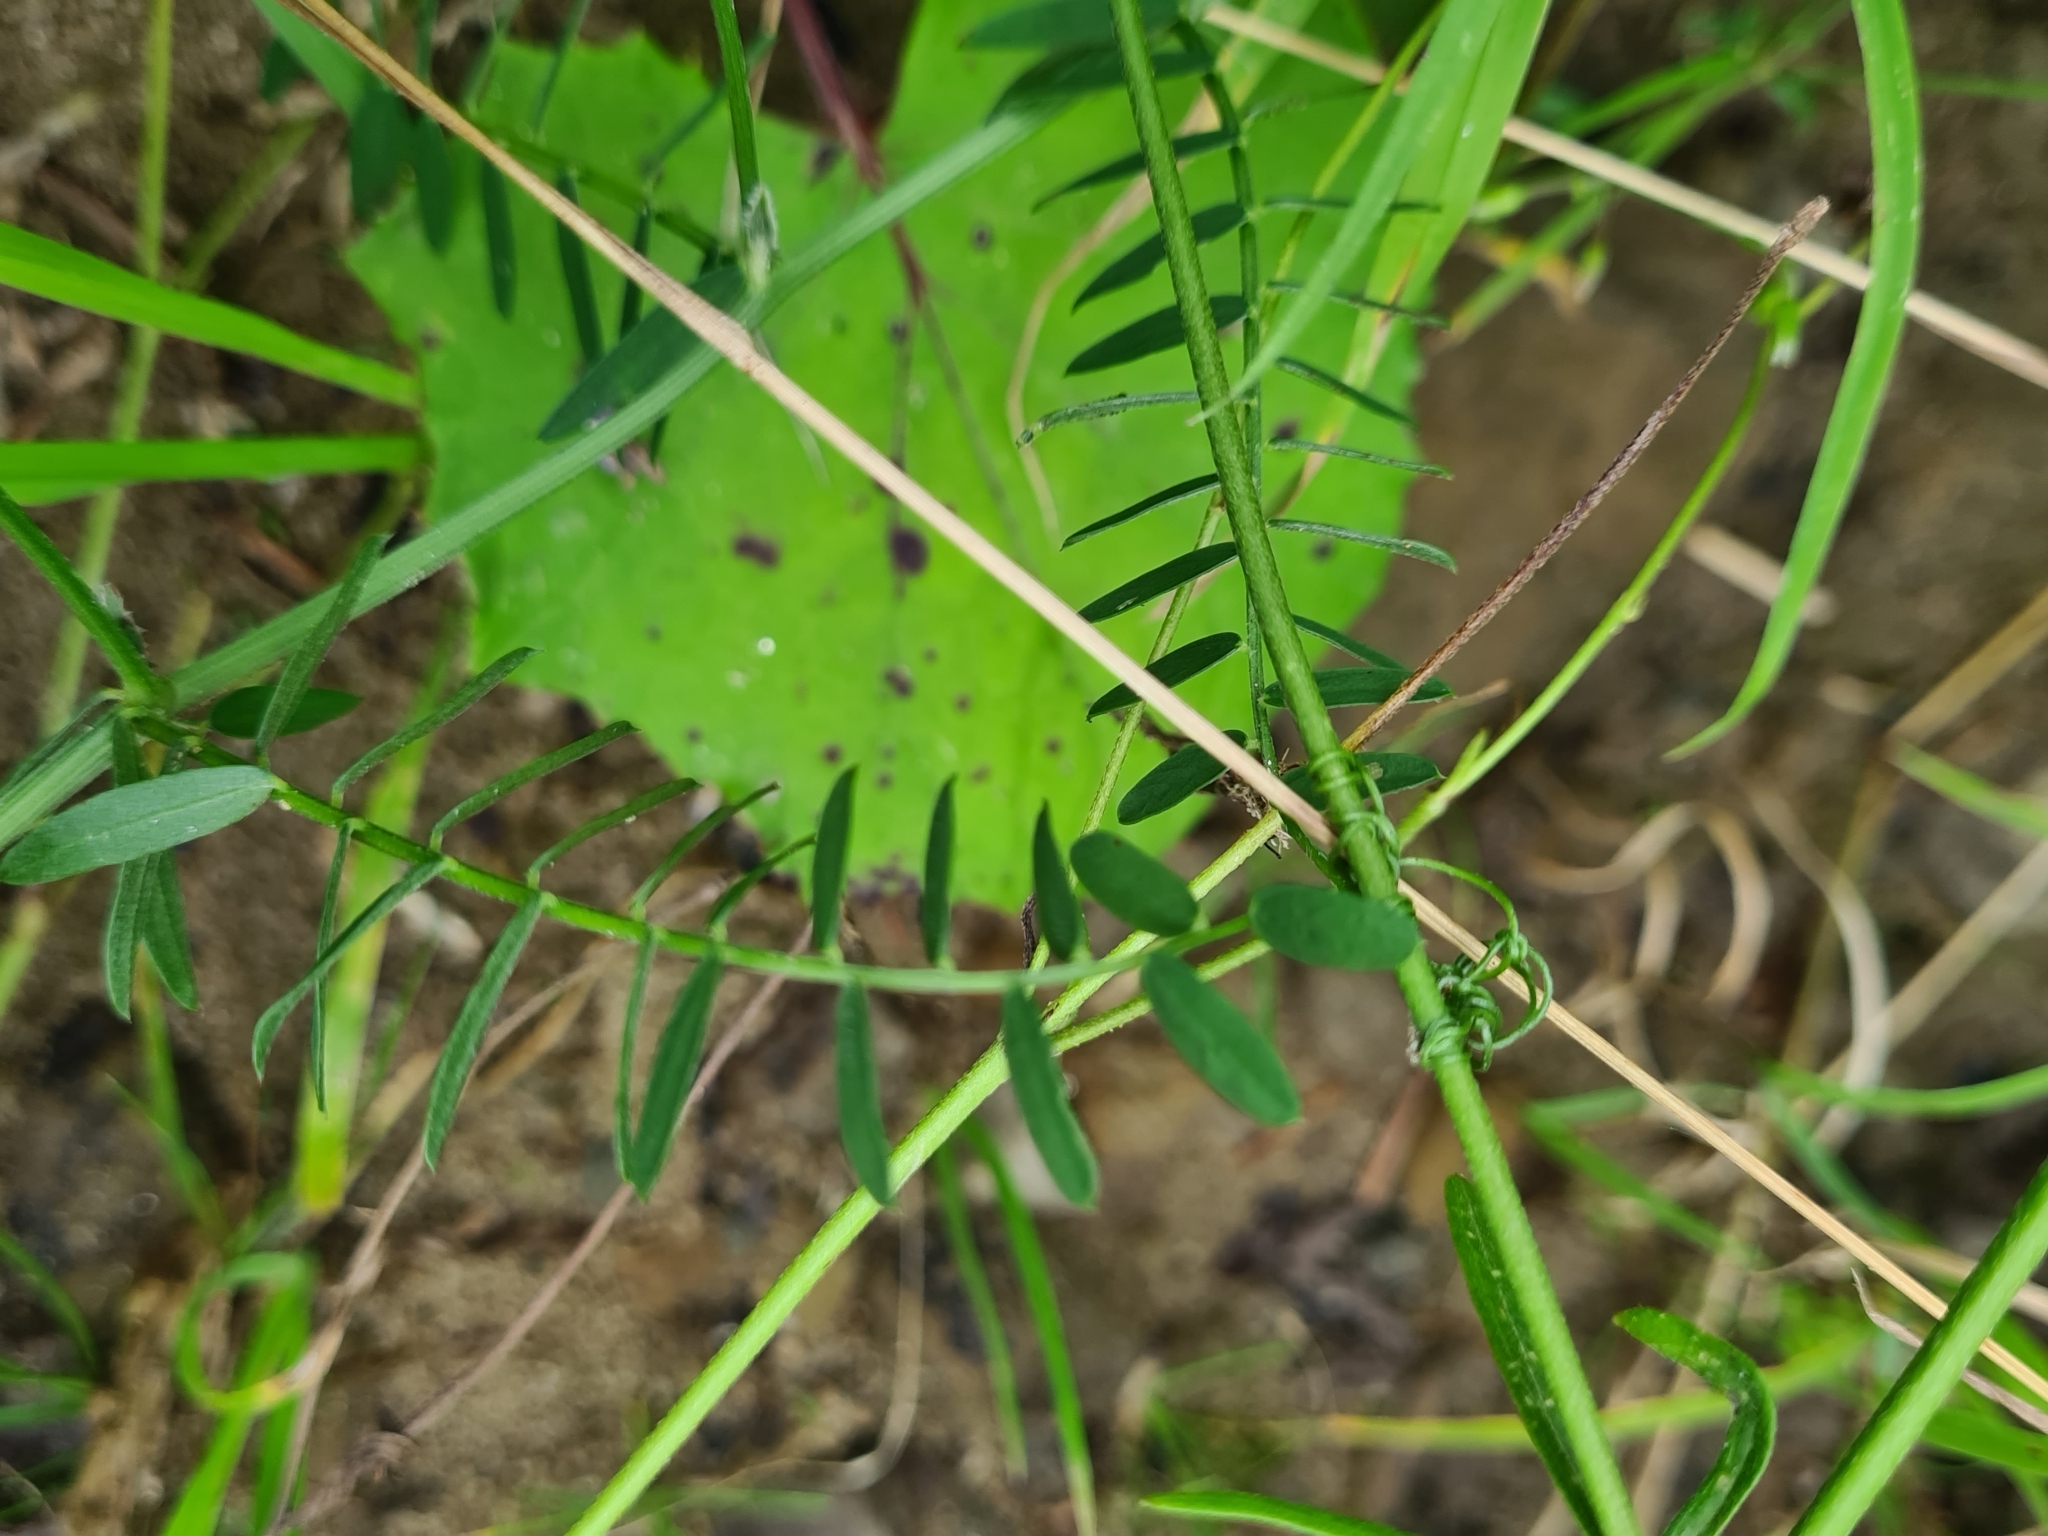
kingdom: Plantae
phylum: Tracheophyta
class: Magnoliopsida
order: Fabales
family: Fabaceae
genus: Vicia
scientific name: Vicia cracca
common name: Bird vetch
